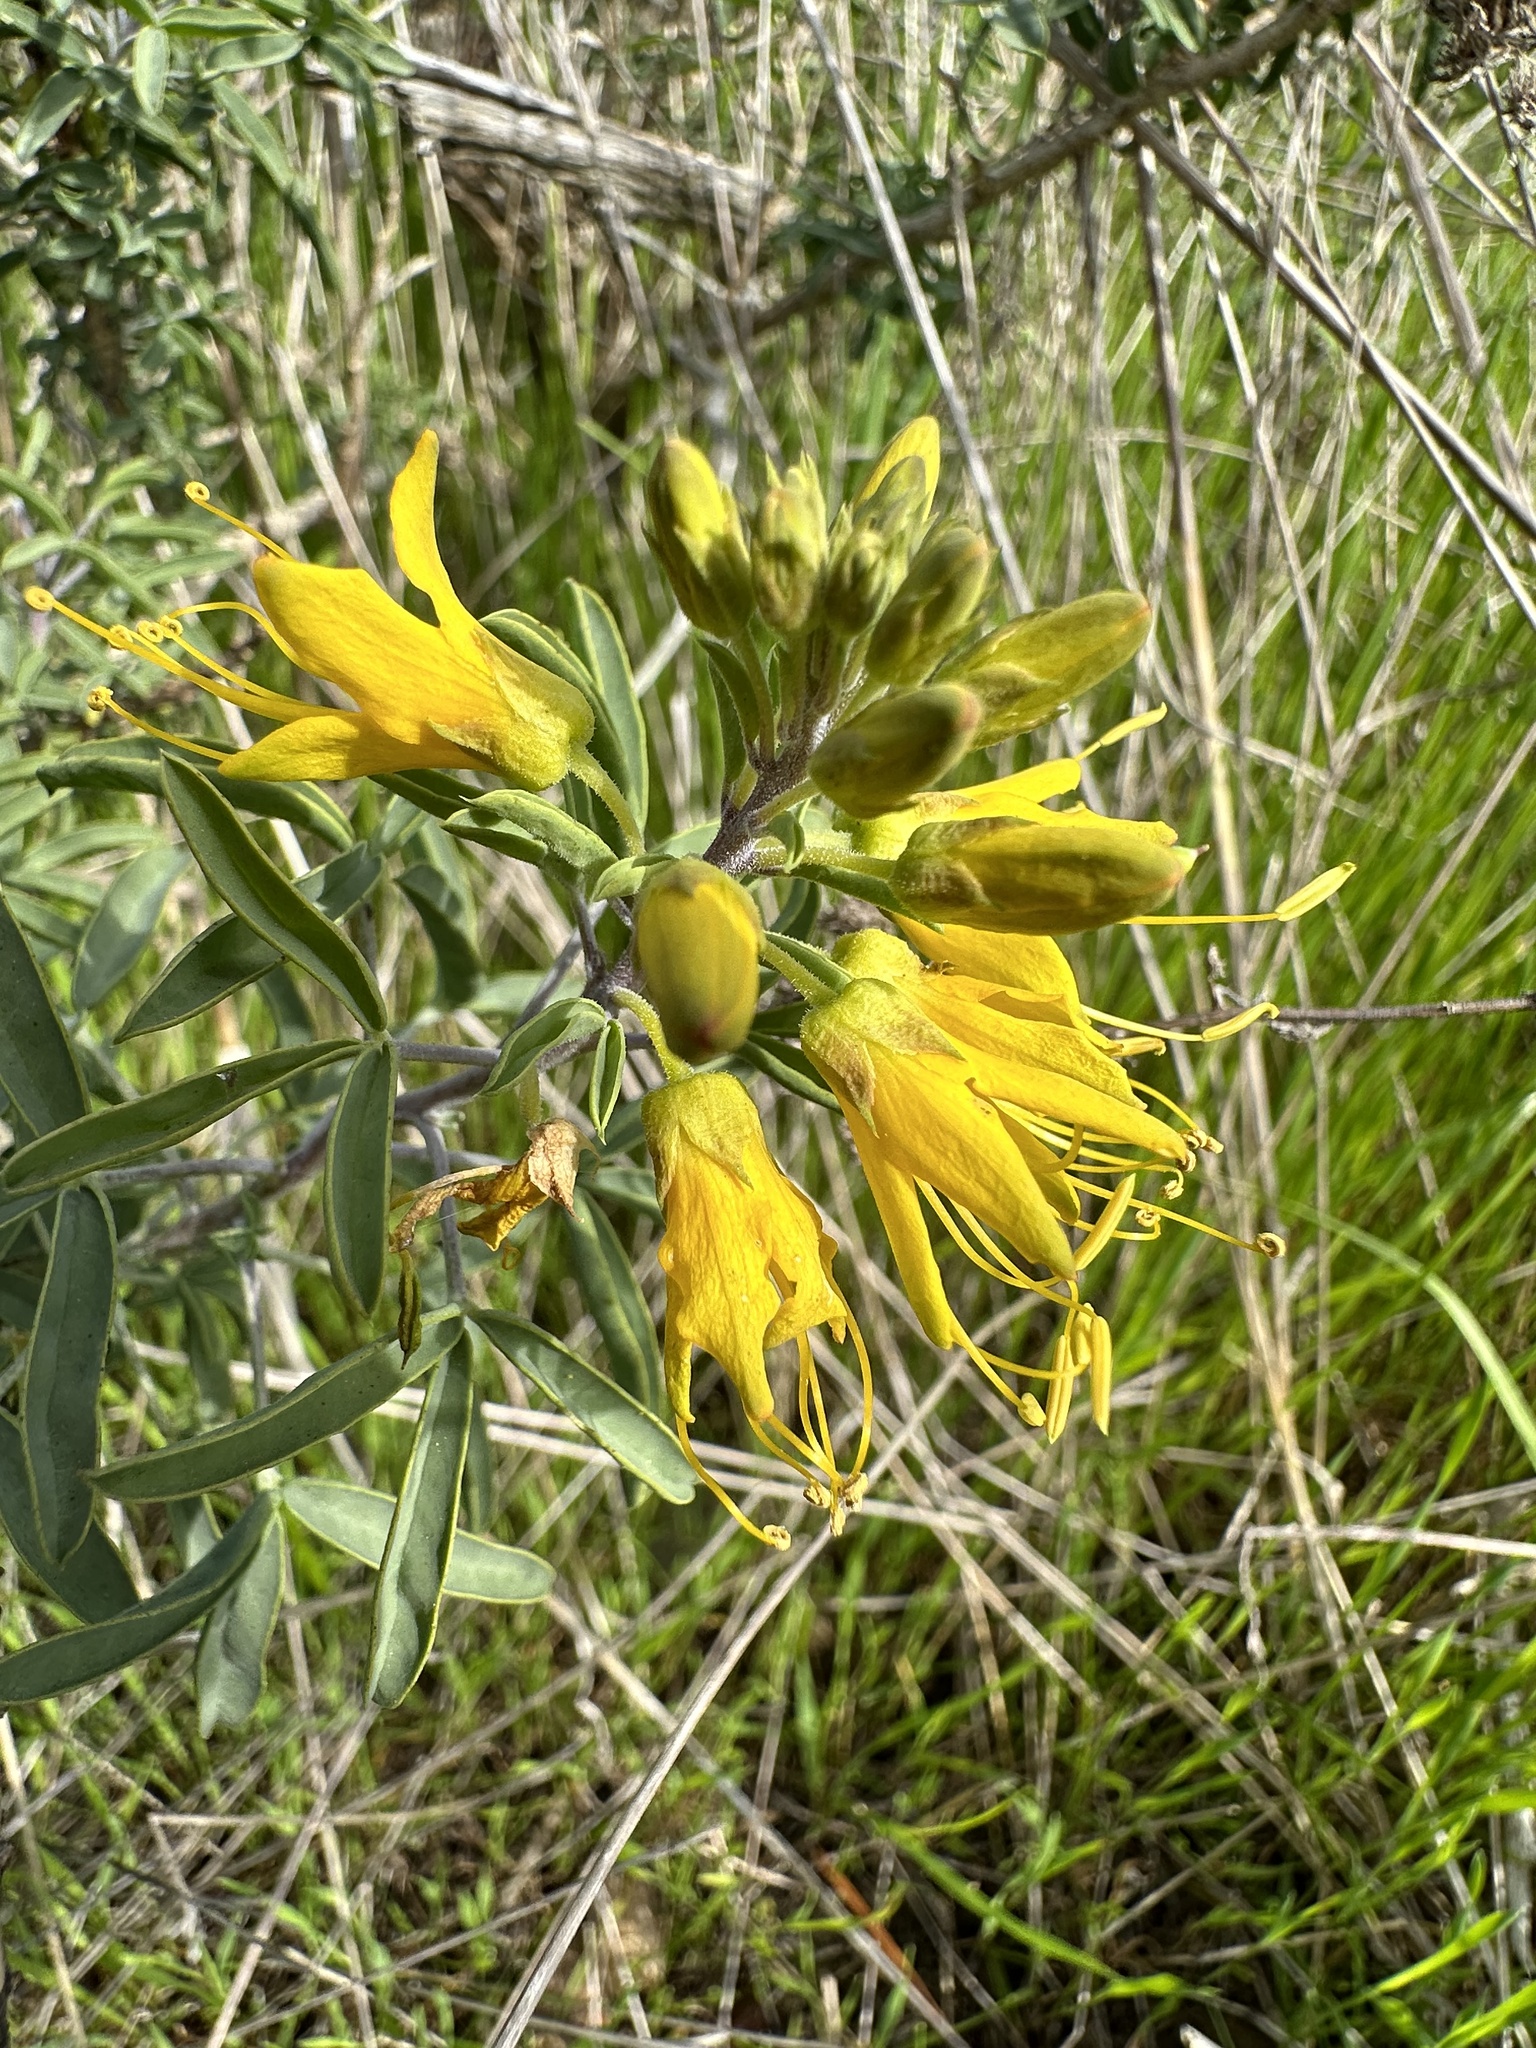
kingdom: Plantae
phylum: Tracheophyta
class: Magnoliopsida
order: Brassicales
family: Cleomaceae
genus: Cleomella
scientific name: Cleomella arborea
